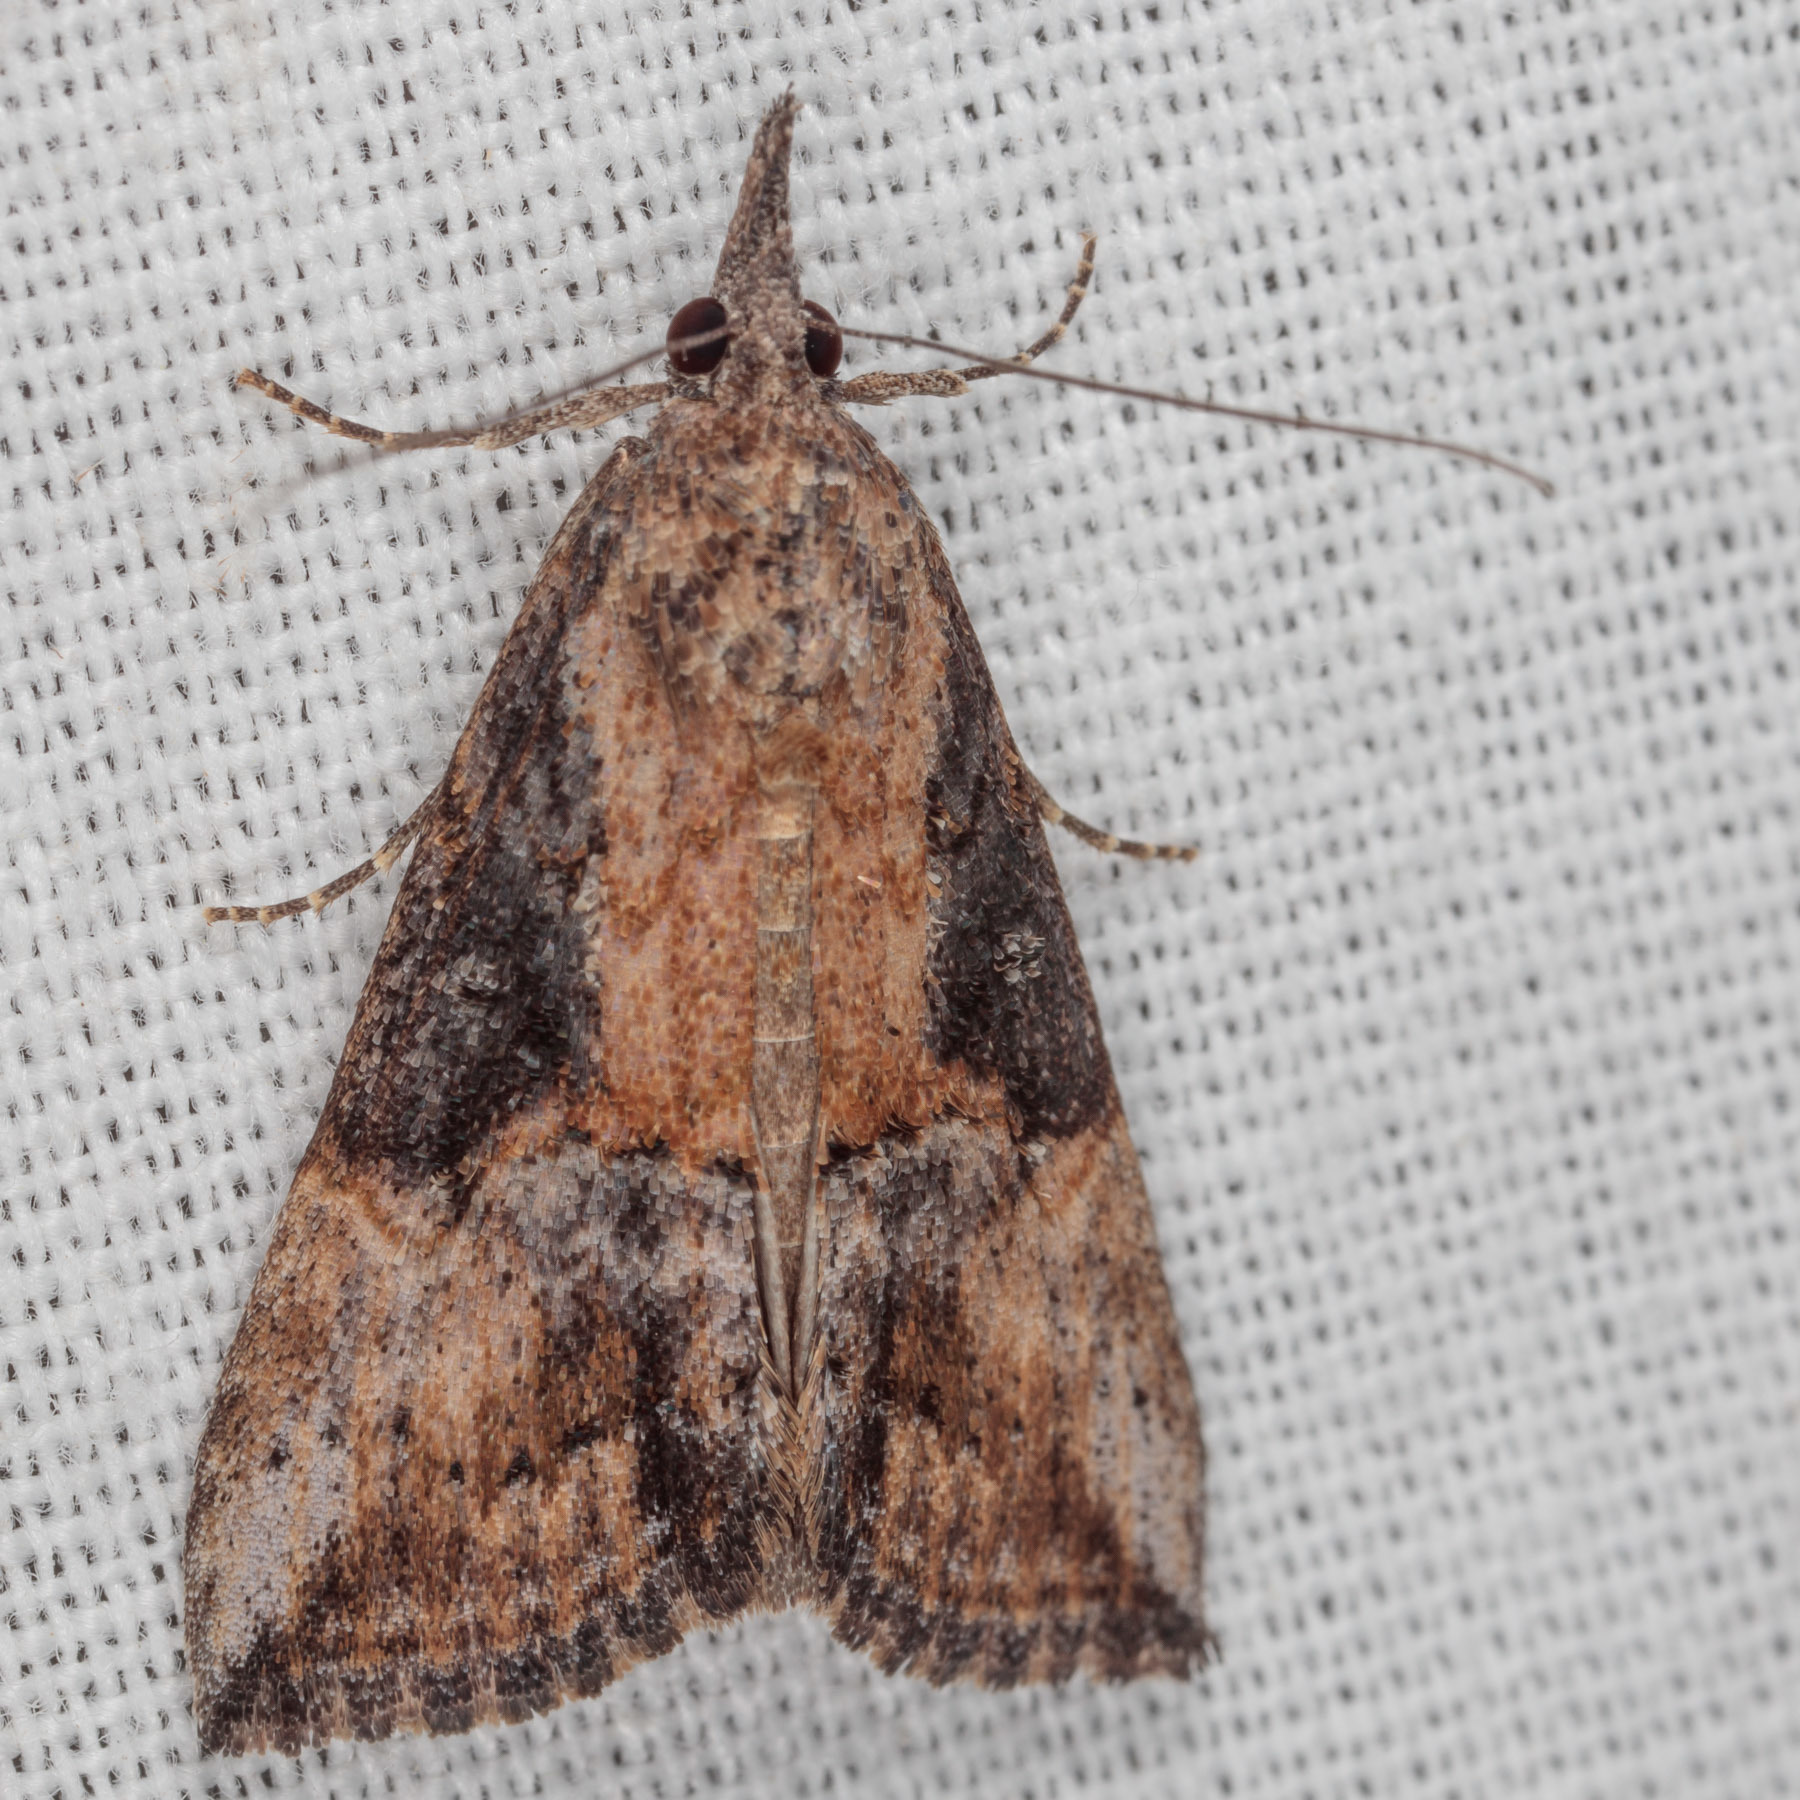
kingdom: Animalia
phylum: Arthropoda
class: Insecta
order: Lepidoptera
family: Erebidae
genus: Hypena
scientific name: Hypena scabra
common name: Green cloverworm
